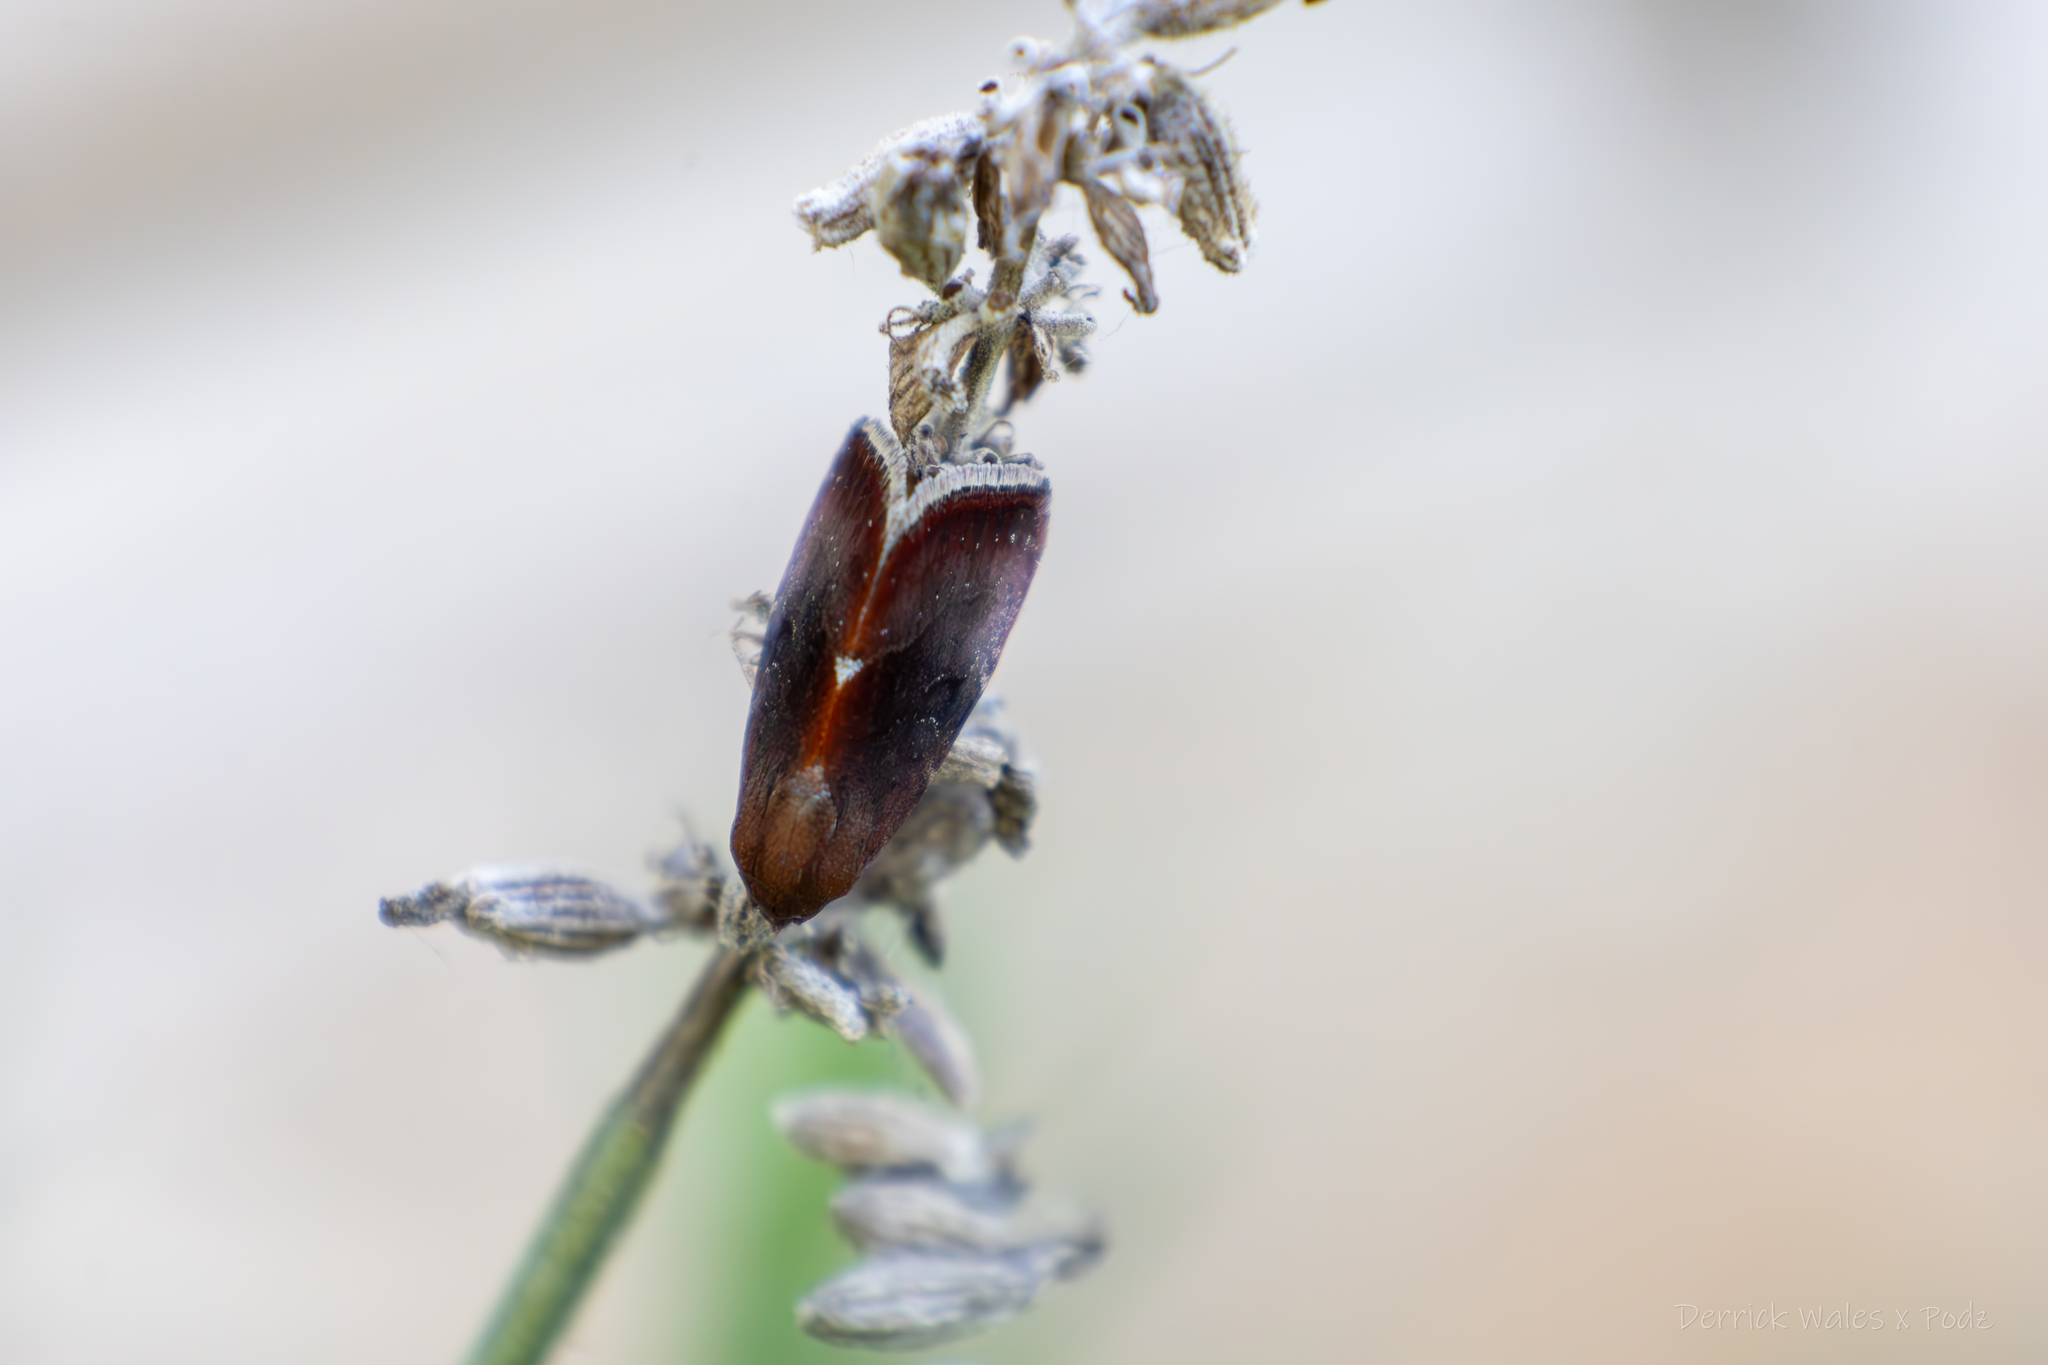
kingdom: Animalia
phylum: Arthropoda
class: Insecta
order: Lepidoptera
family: Noctuidae
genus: Galgula
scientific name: Galgula partita
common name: Wedgeling
